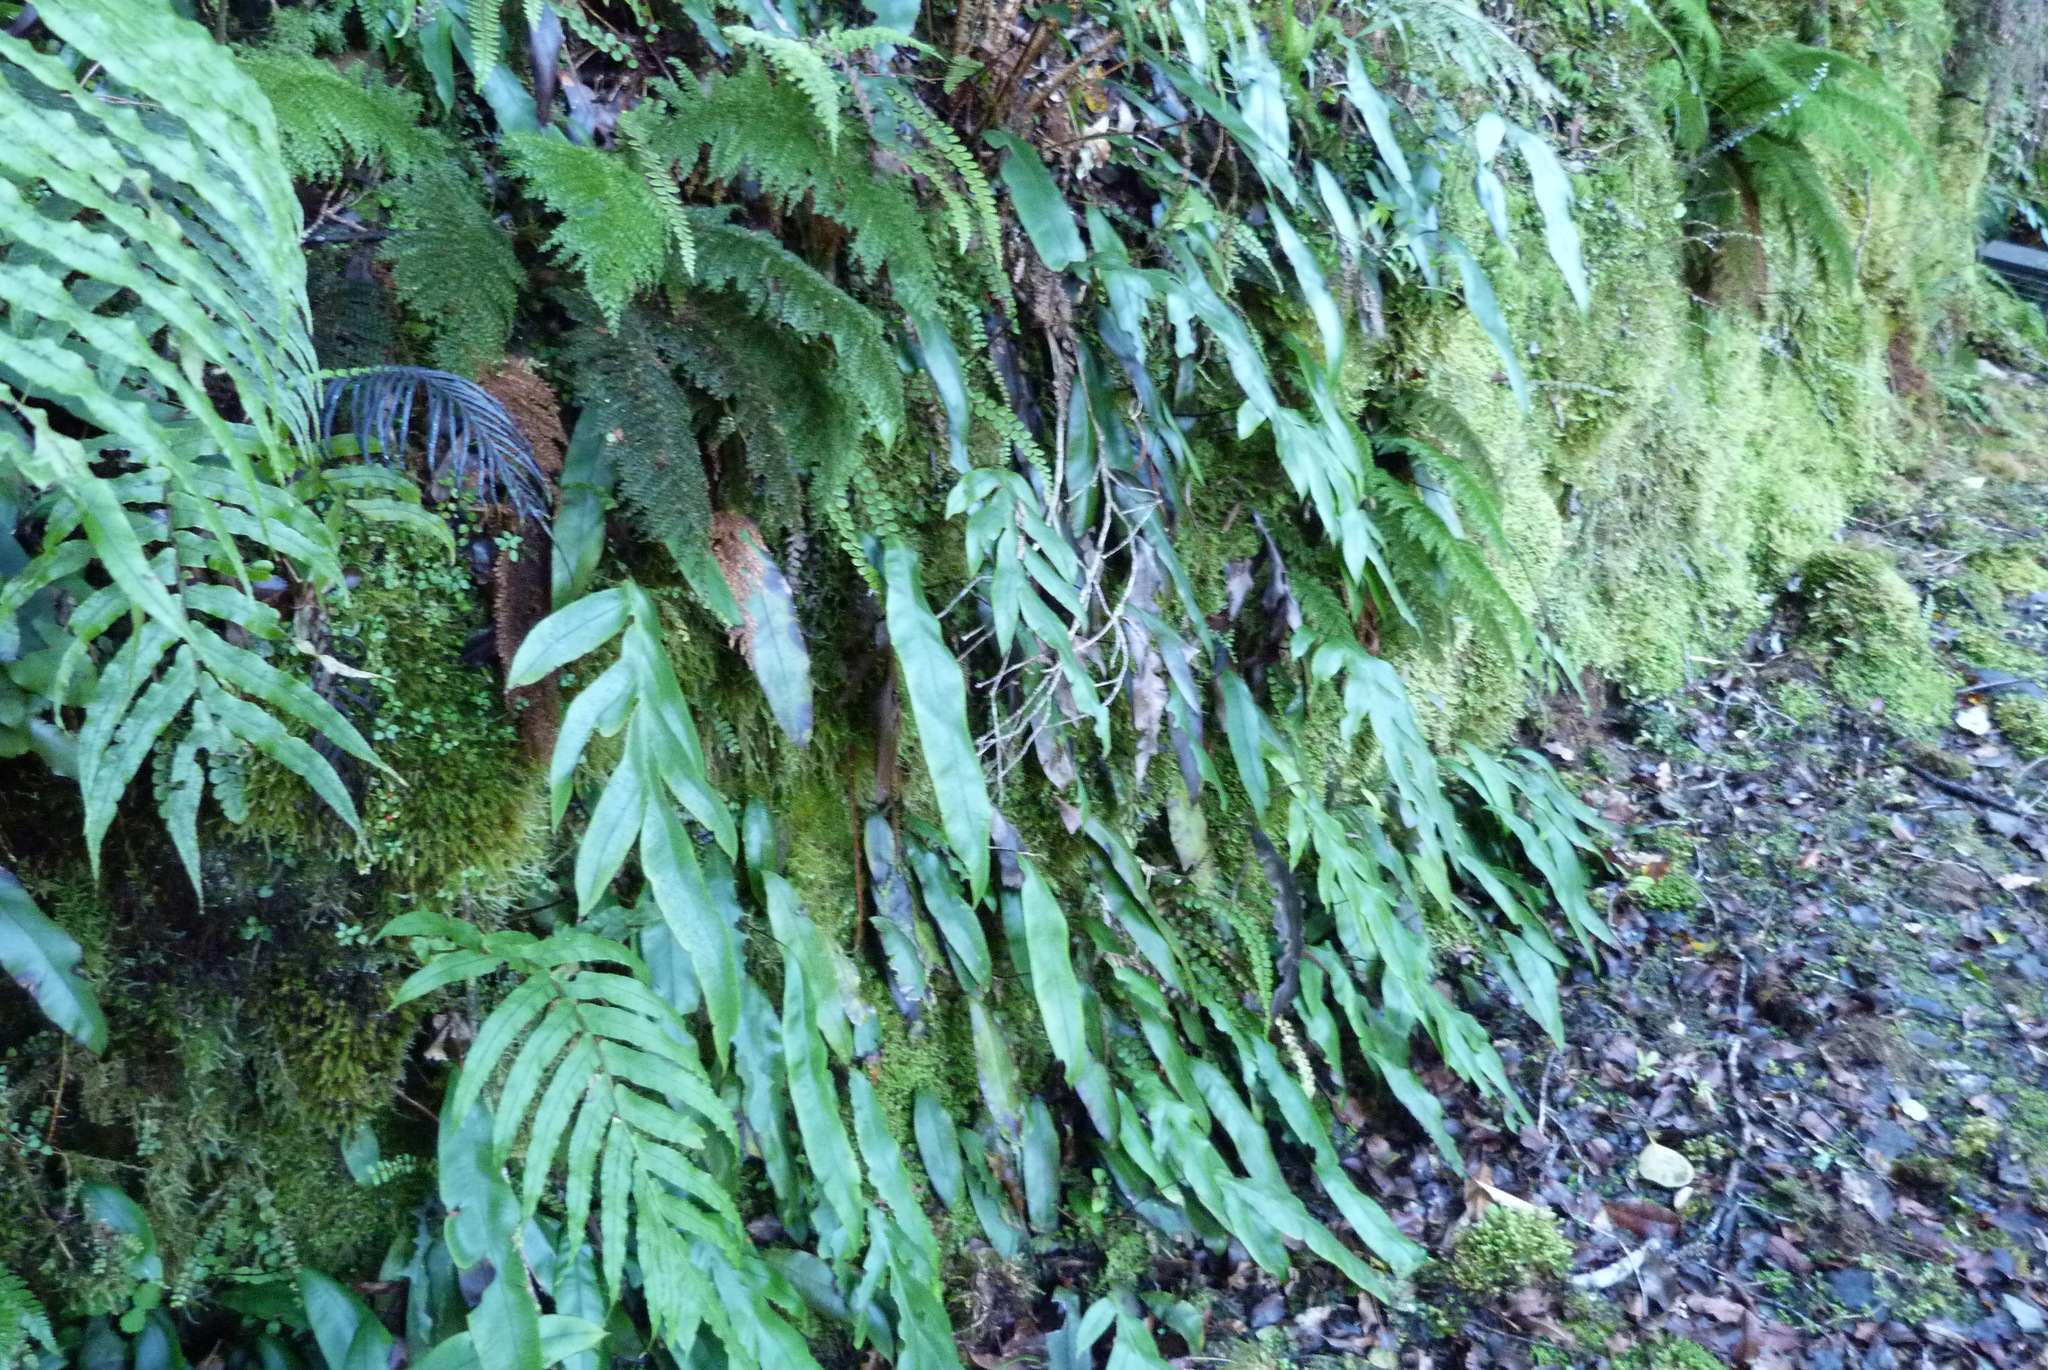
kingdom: Plantae
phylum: Tracheophyta
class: Polypodiopsida
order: Polypodiales
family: Blechnaceae
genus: Austroblechnum
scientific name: Austroblechnum colensoi
